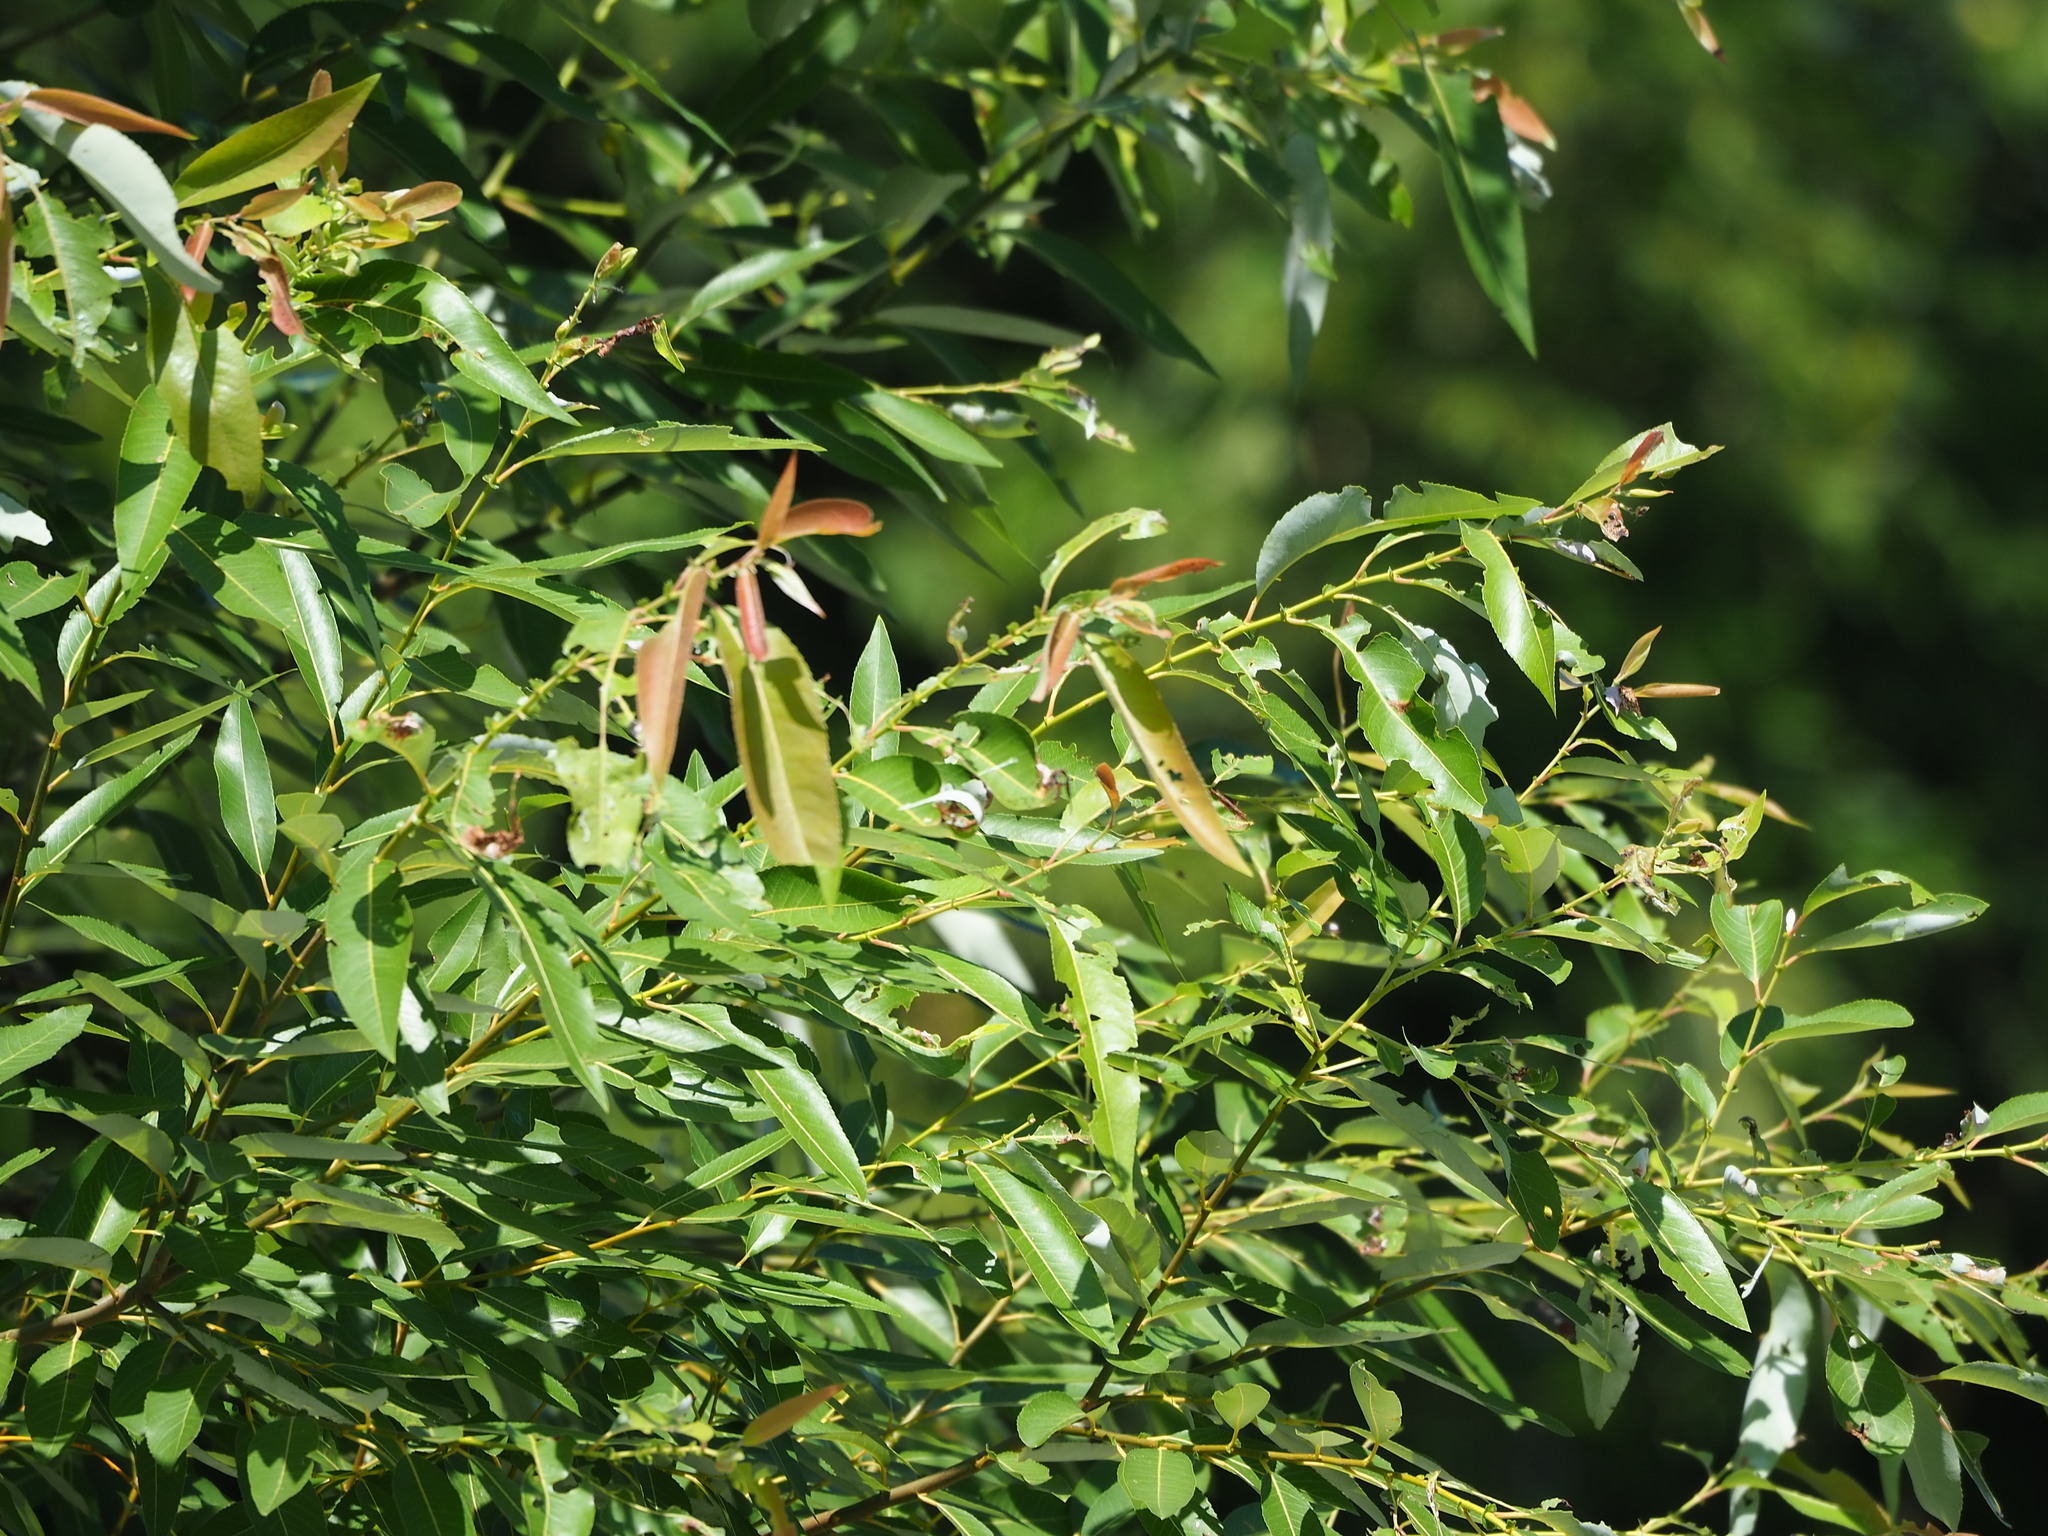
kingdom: Plantae
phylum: Tracheophyta
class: Magnoliopsida
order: Malpighiales
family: Salicaceae
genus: Salix
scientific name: Salix mesnyi
